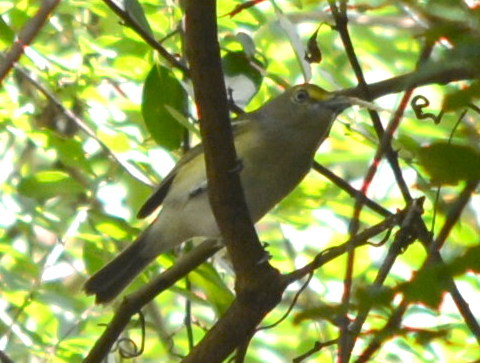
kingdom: Animalia
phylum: Chordata
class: Aves
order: Passeriformes
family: Vireonidae
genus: Vireo
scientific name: Vireo griseus
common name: White-eyed vireo
